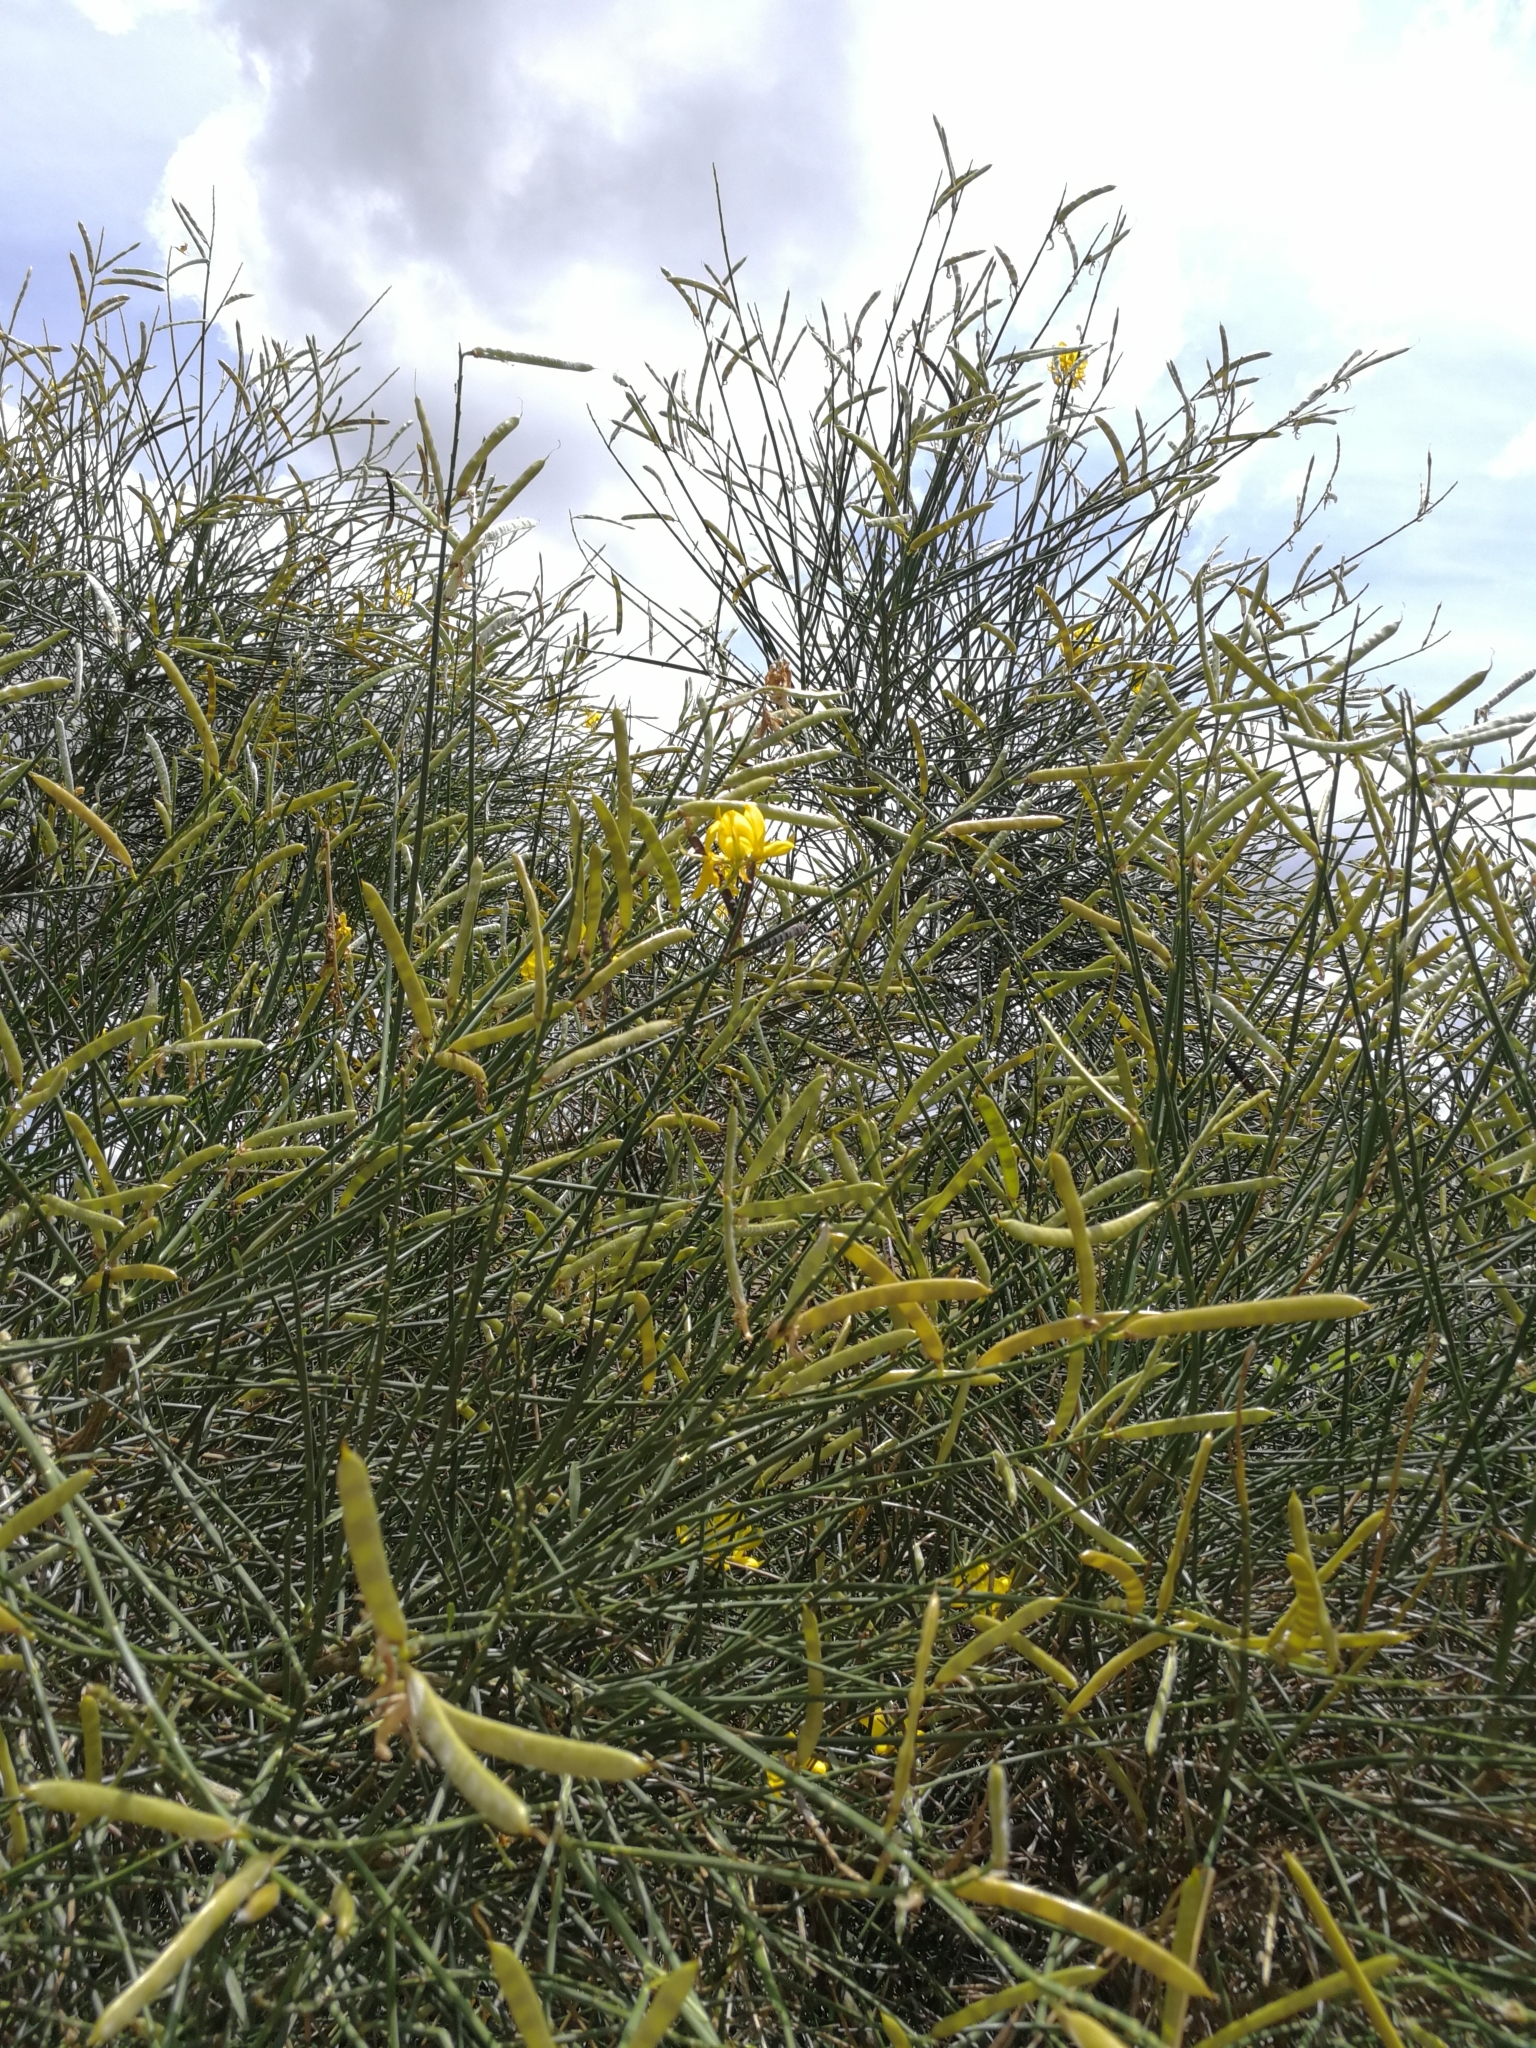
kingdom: Plantae
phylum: Tracheophyta
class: Magnoliopsida
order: Fabales
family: Fabaceae
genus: Spartium
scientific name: Spartium junceum
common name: Spanish broom
